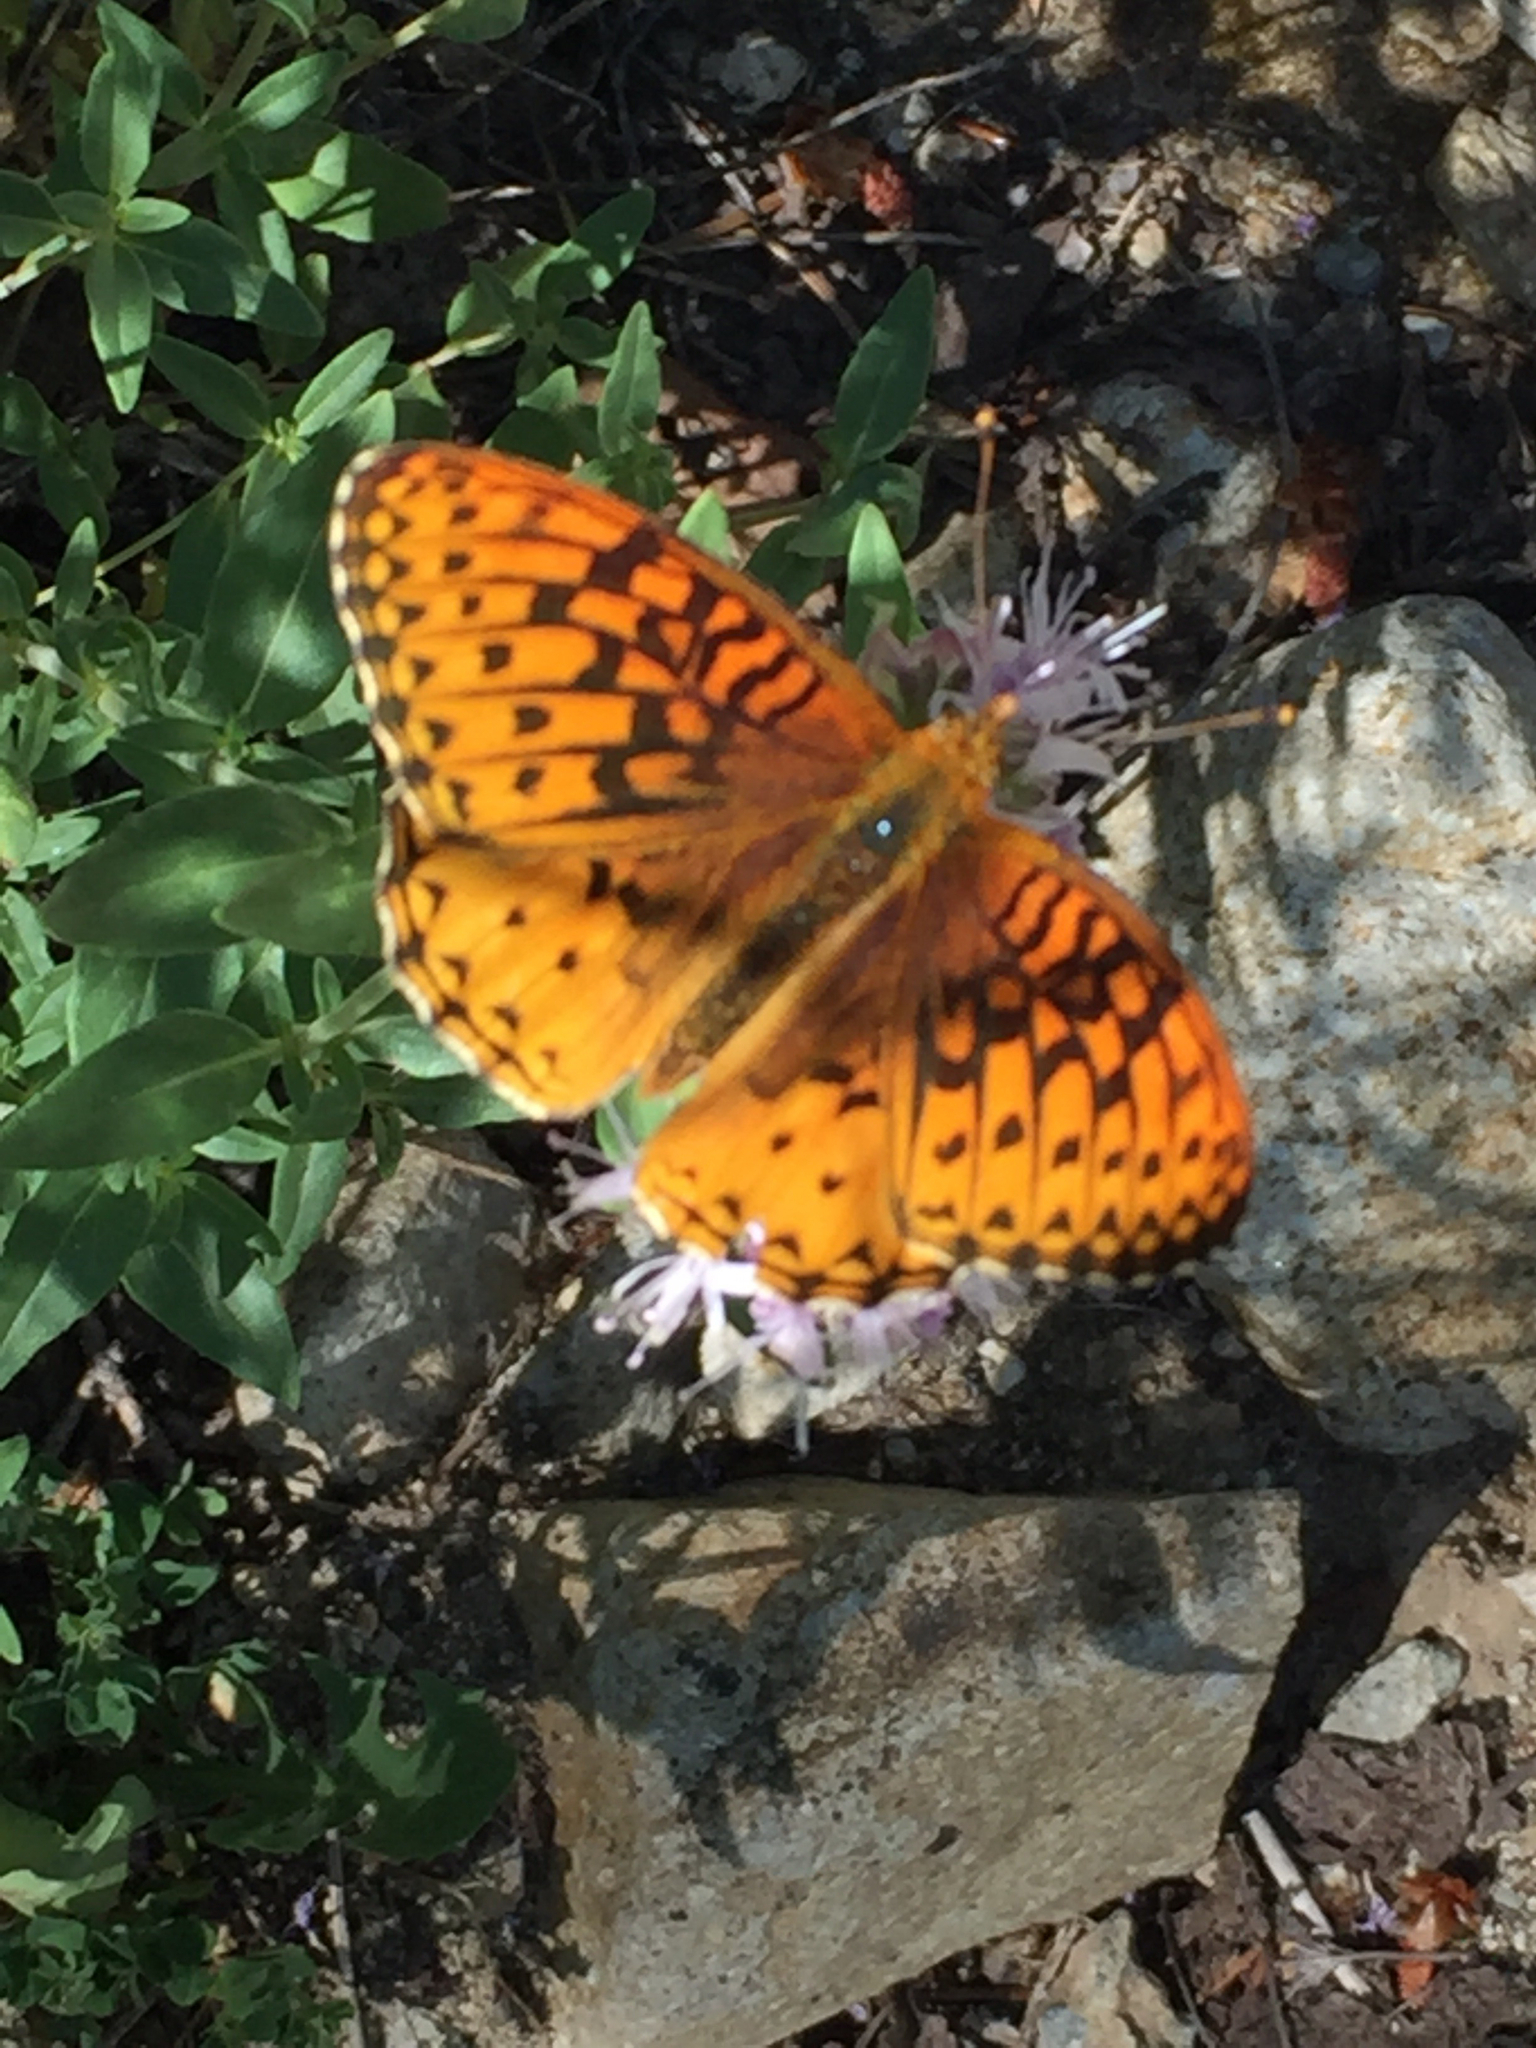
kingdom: Animalia
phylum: Arthropoda
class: Insecta
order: Lepidoptera
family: Nymphalidae
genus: Speyeria
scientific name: Speyeria atlantis
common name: Atlantis fritillary
